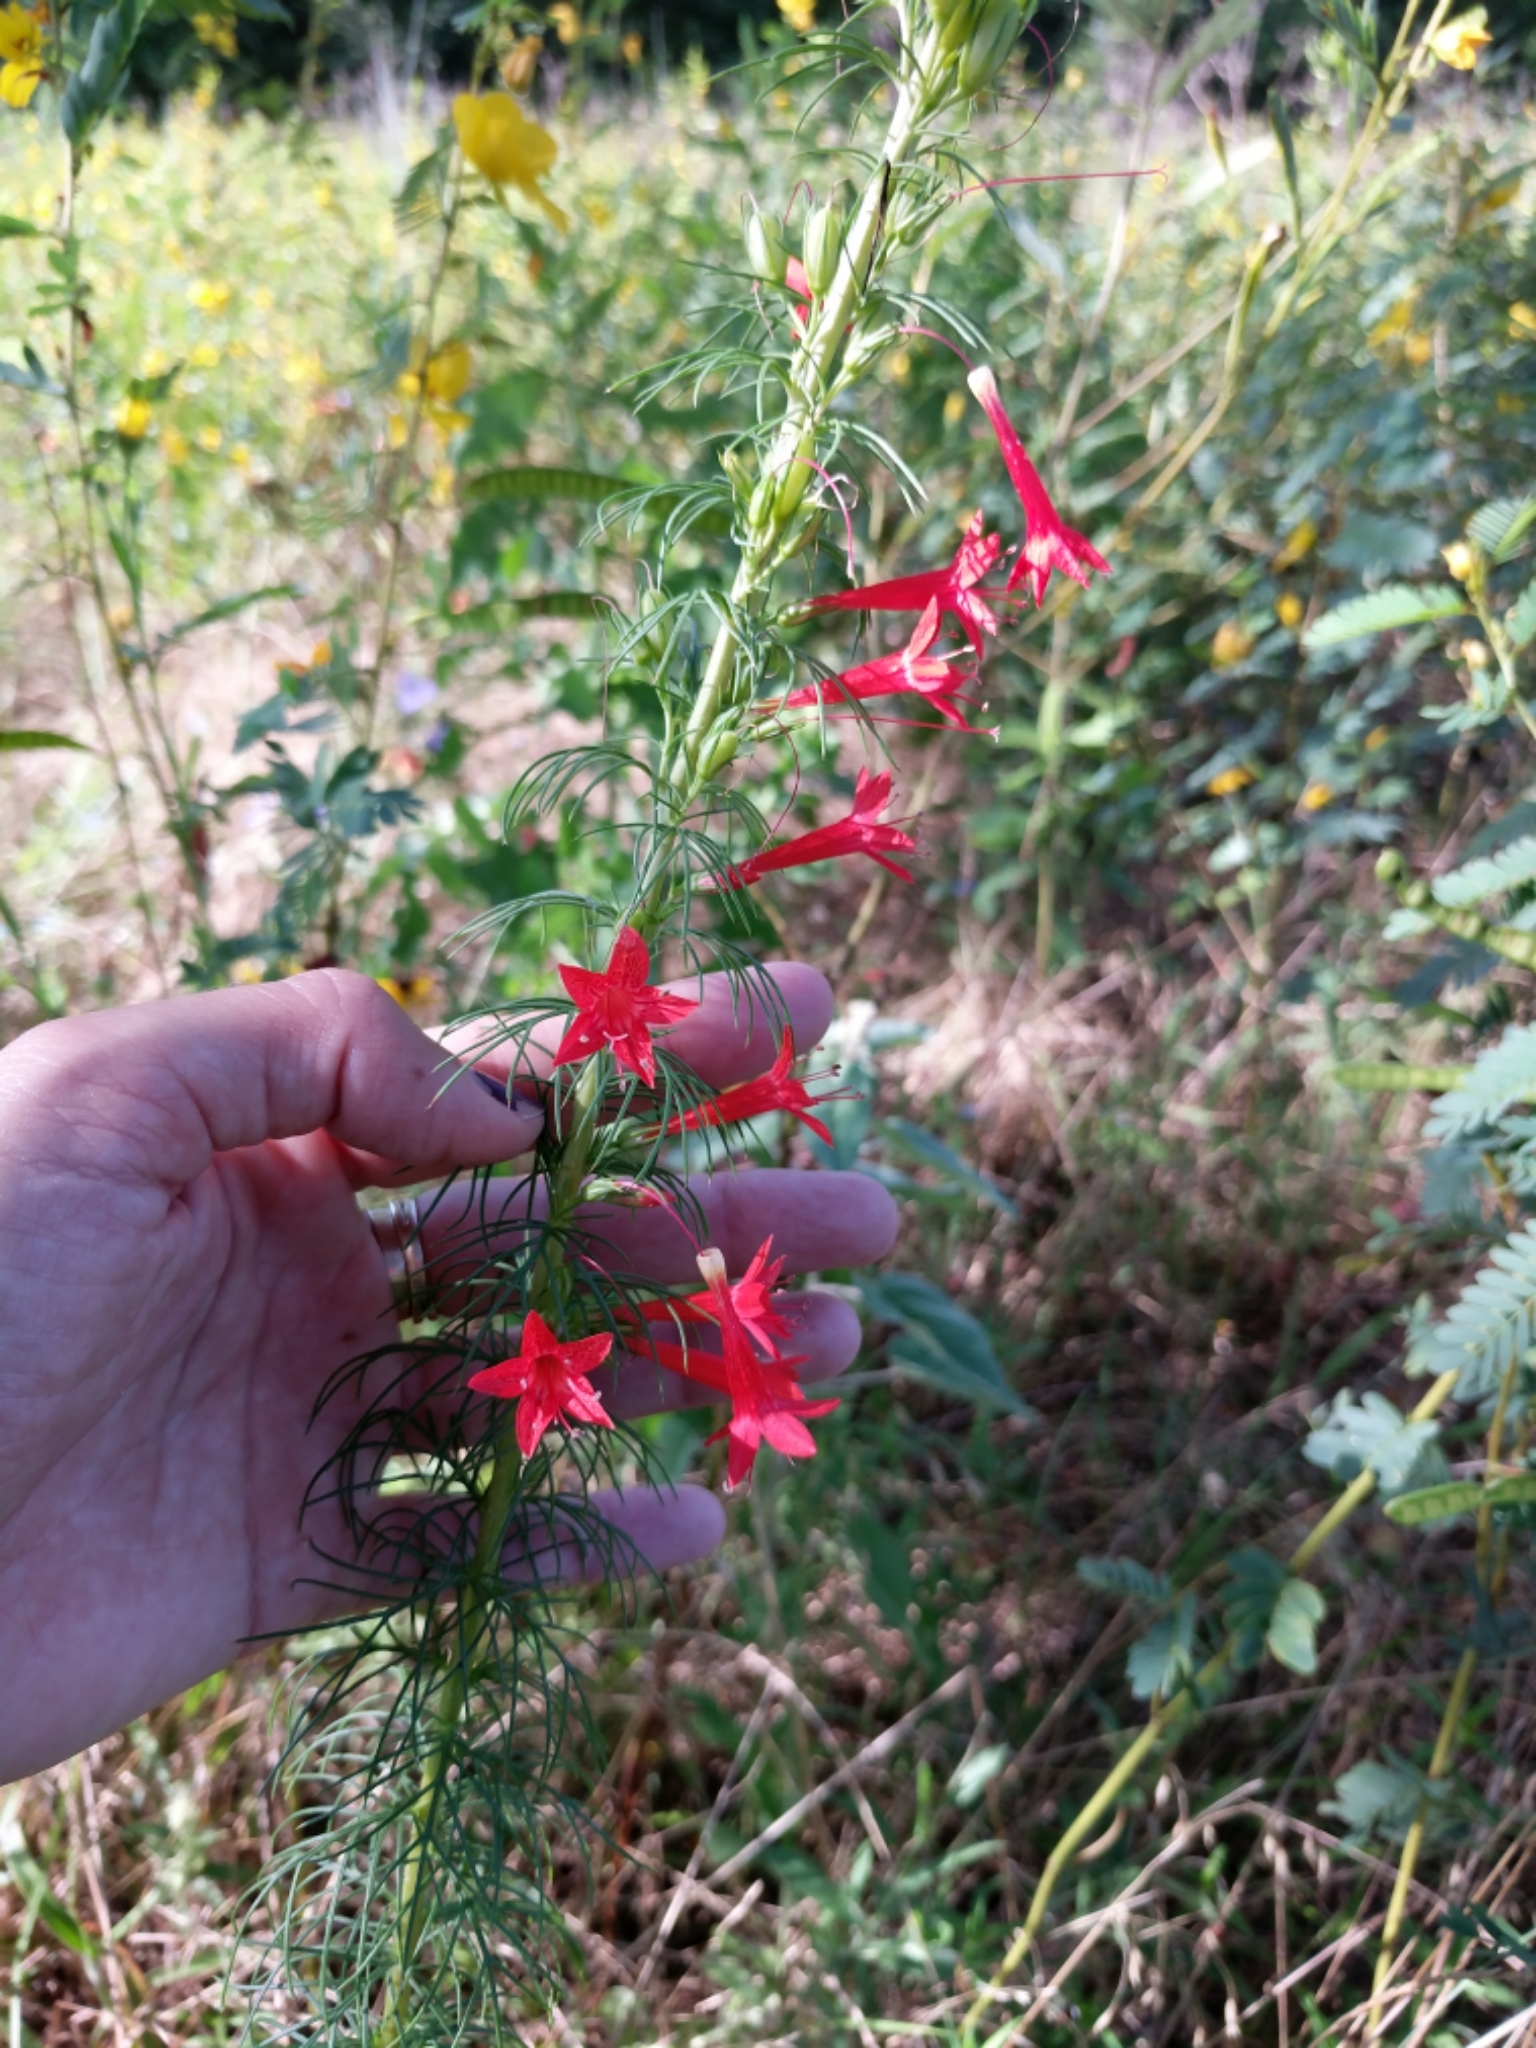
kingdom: Plantae
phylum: Tracheophyta
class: Magnoliopsida
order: Ericales
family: Polemoniaceae
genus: Ipomopsis
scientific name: Ipomopsis rubra
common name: Skyrocket
